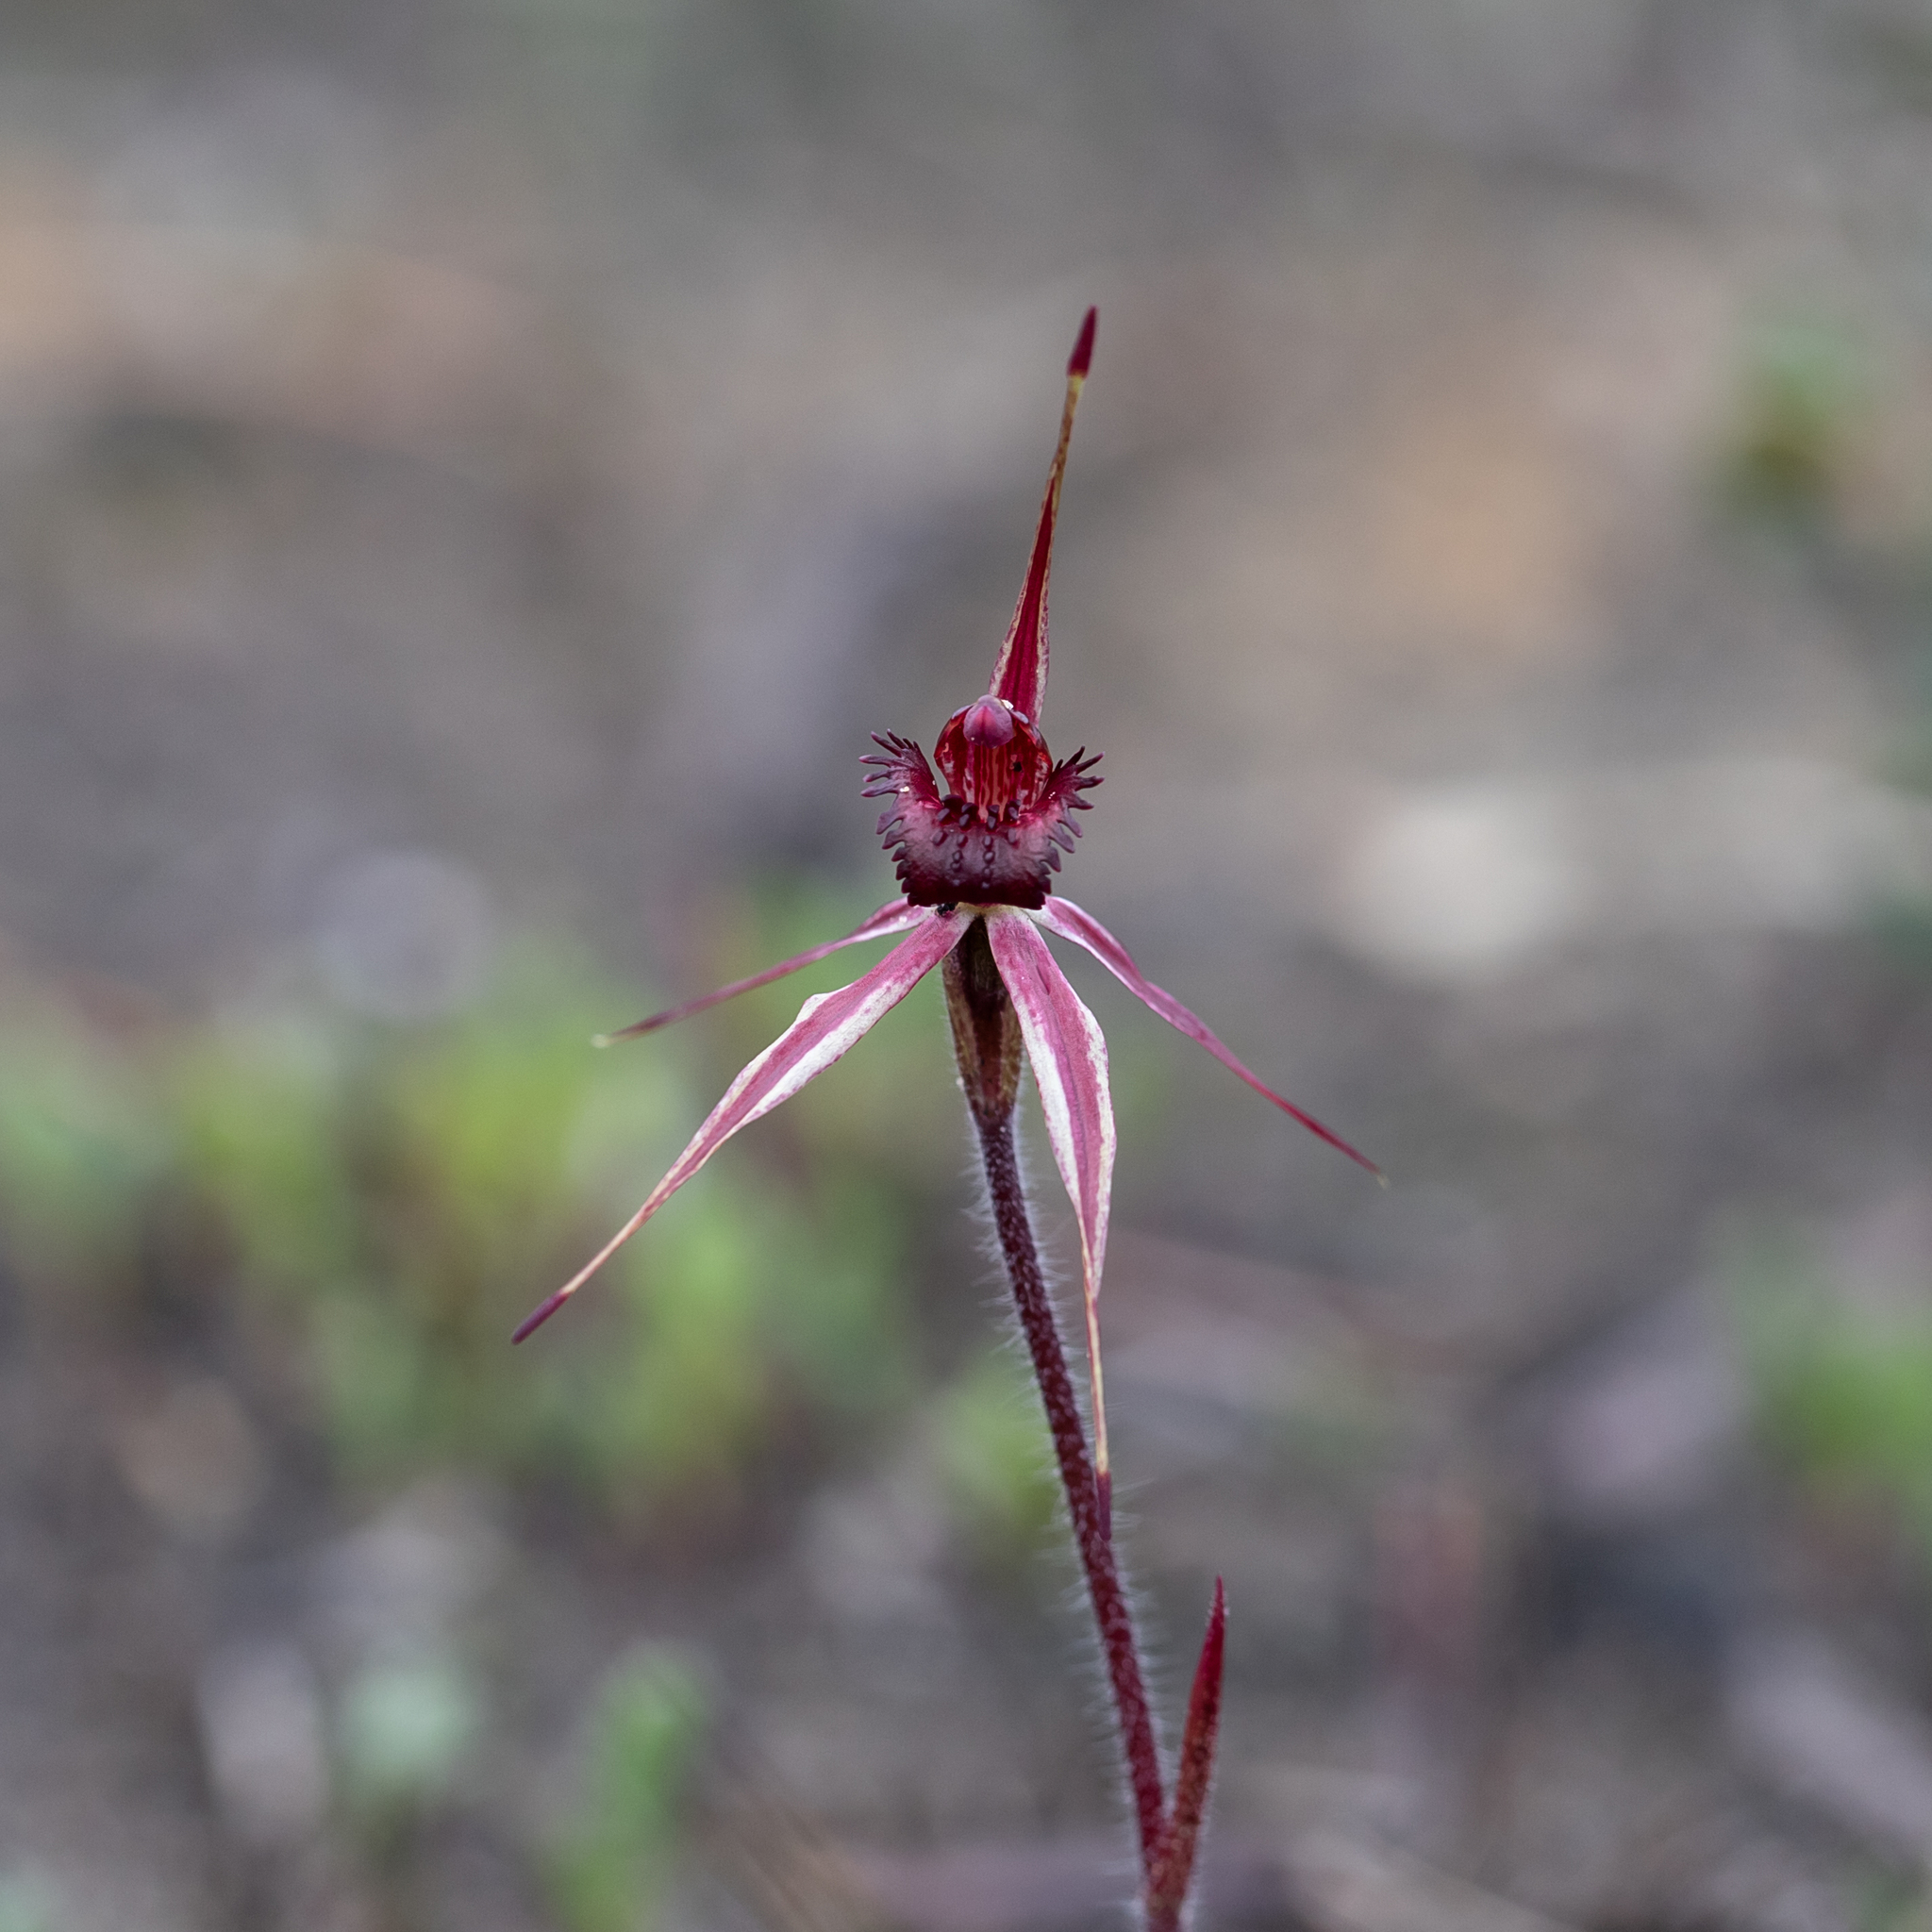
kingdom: Plantae
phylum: Tracheophyta
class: Liliopsida
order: Asparagales
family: Orchidaceae
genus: Caladenia
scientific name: Caladenia reticulata
